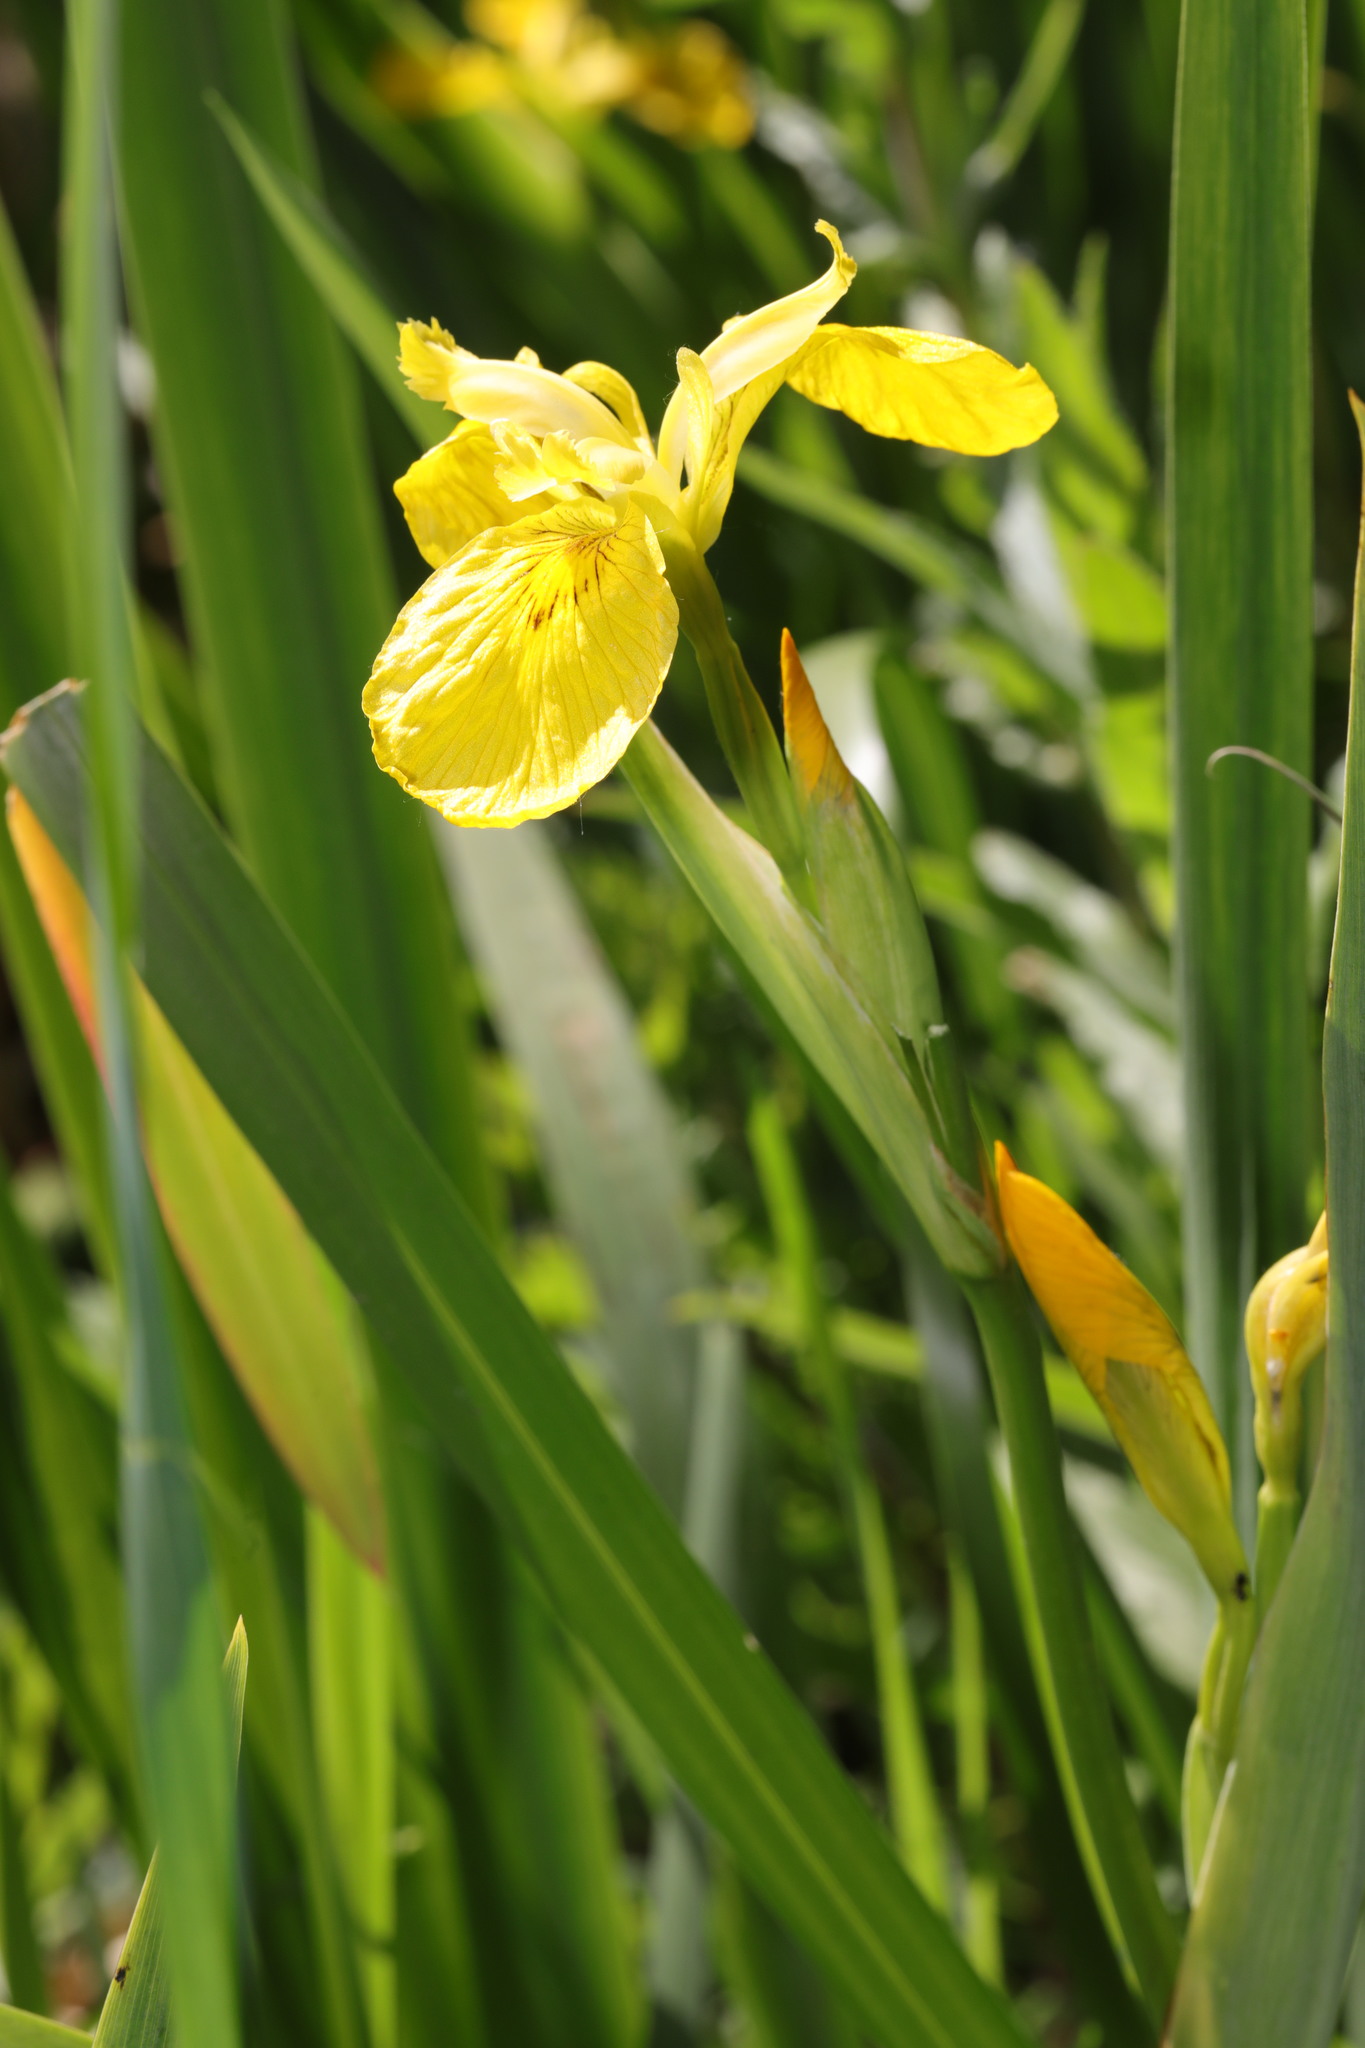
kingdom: Plantae
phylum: Tracheophyta
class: Liliopsida
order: Asparagales
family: Iridaceae
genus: Iris
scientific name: Iris pseudacorus
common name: Yellow flag
